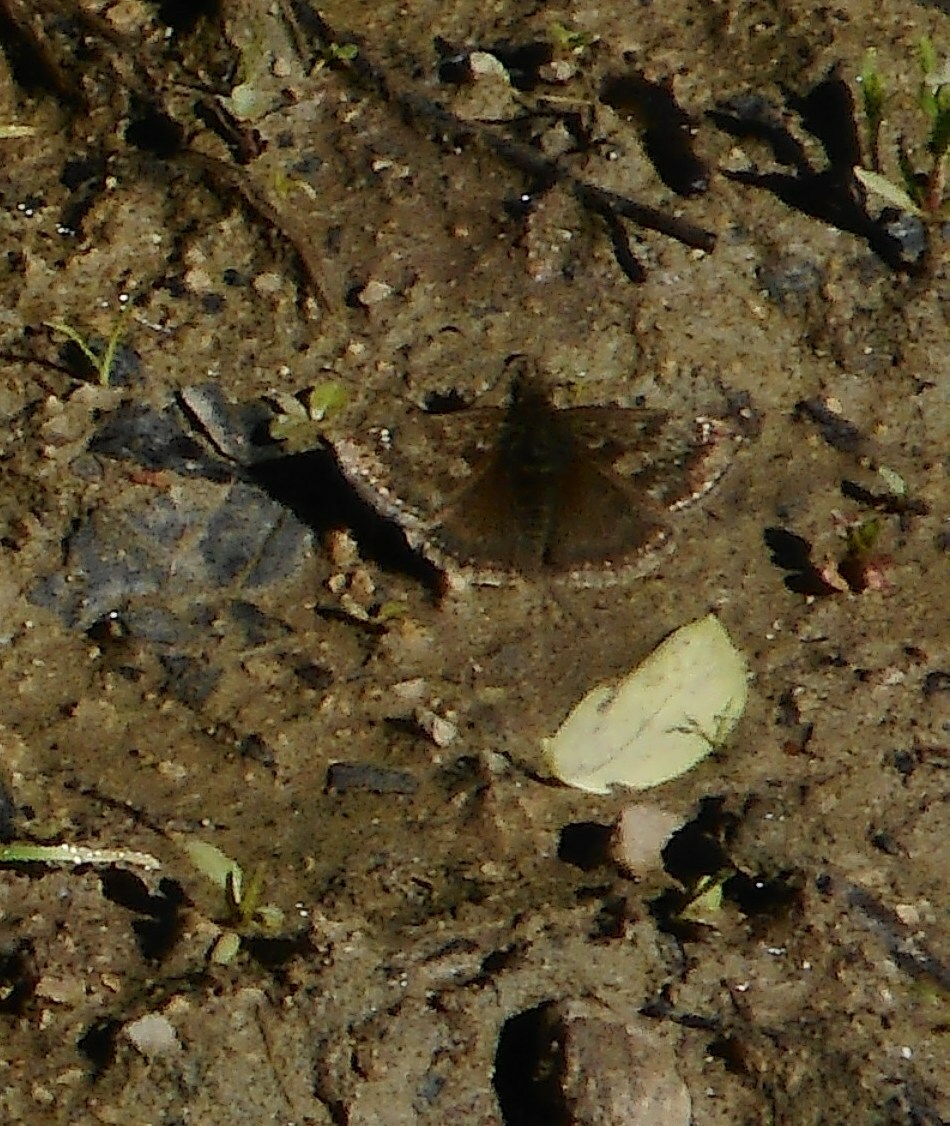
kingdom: Animalia
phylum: Arthropoda
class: Insecta
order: Lepidoptera
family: Hesperiidae
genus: Erynnis
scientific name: Erynnis tages
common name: Dingy skipper
